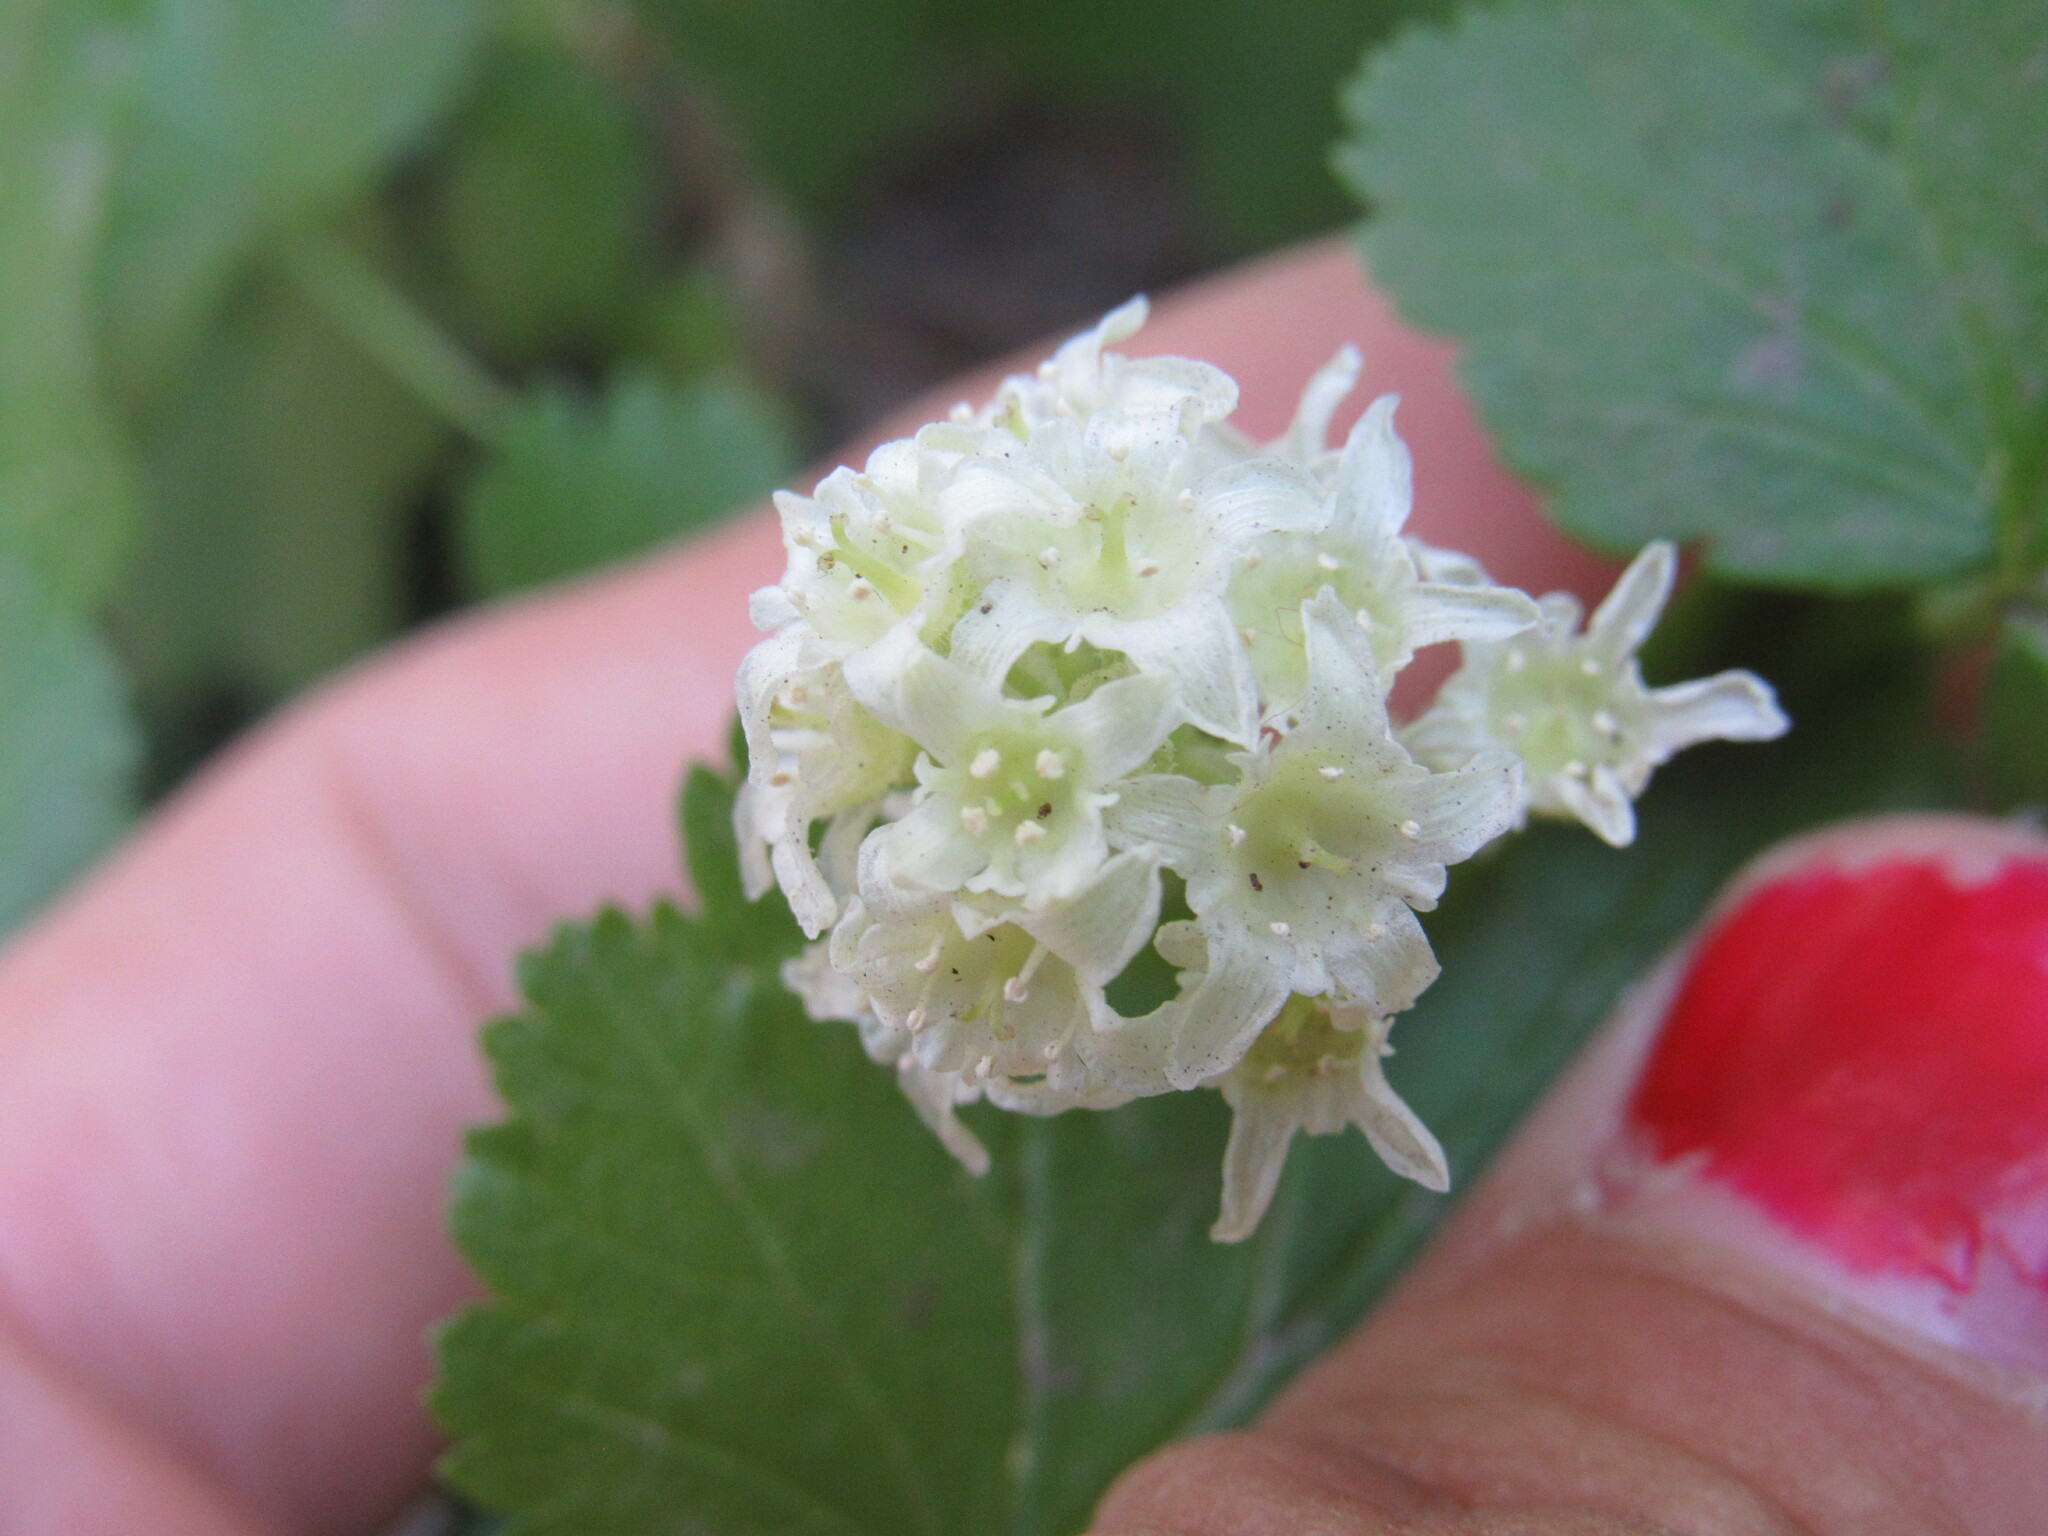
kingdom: Plantae
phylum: Tracheophyta
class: Magnoliopsida
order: Saxifragales
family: Grossulariaceae
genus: Ribes
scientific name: Ribes wolfii
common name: Rothrock currant
